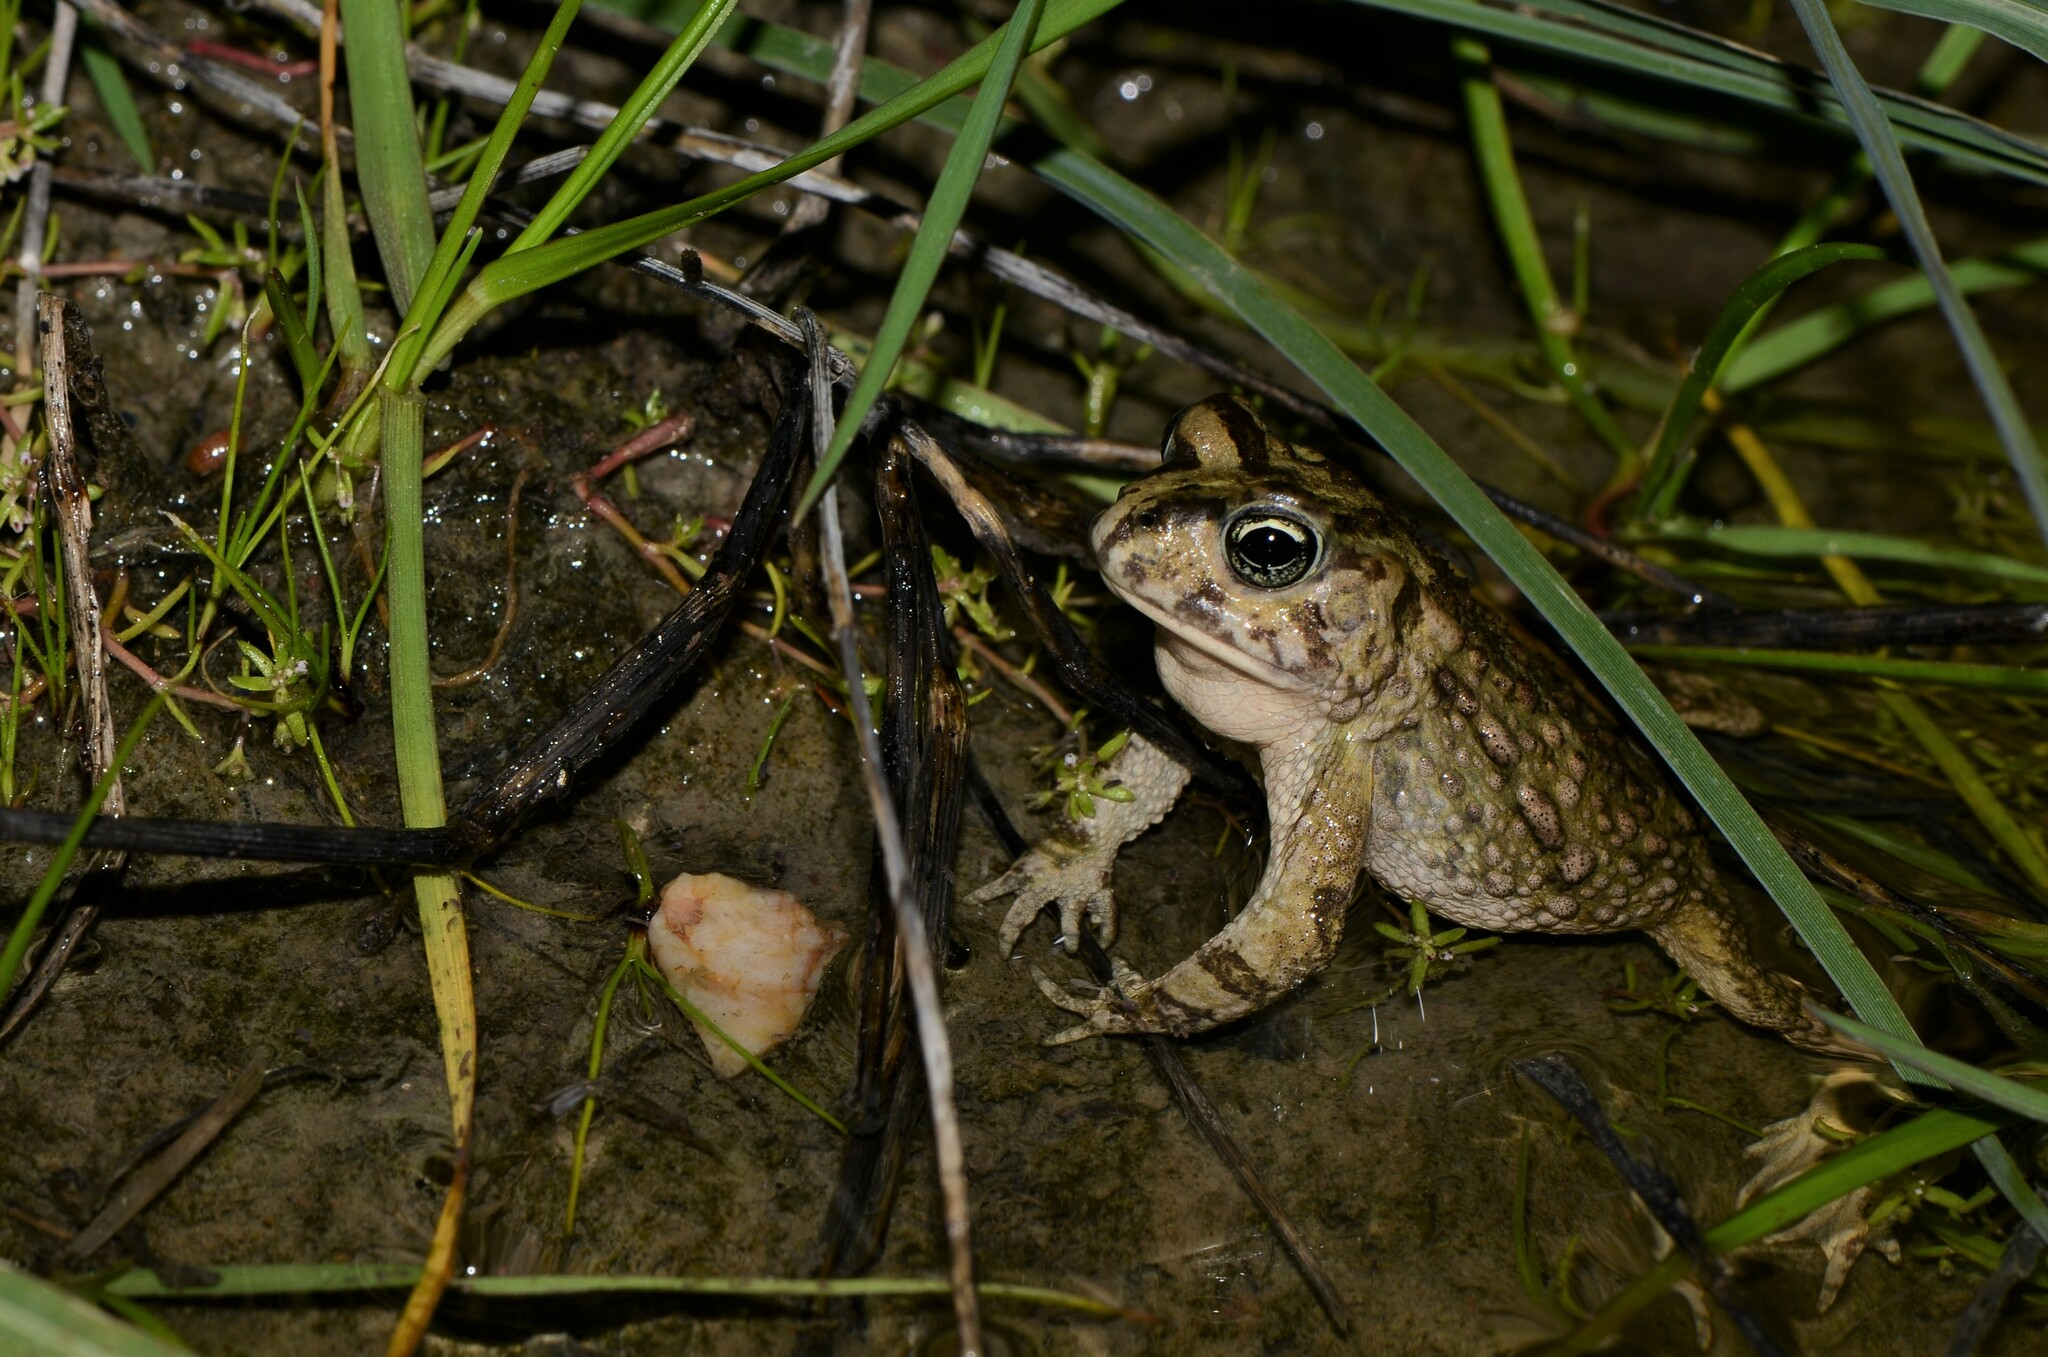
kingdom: Animalia
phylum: Chordata
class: Amphibia
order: Anura
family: Bufonidae
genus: Vandijkophrynus
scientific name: Vandijkophrynus angusticeps
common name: Sand toad
